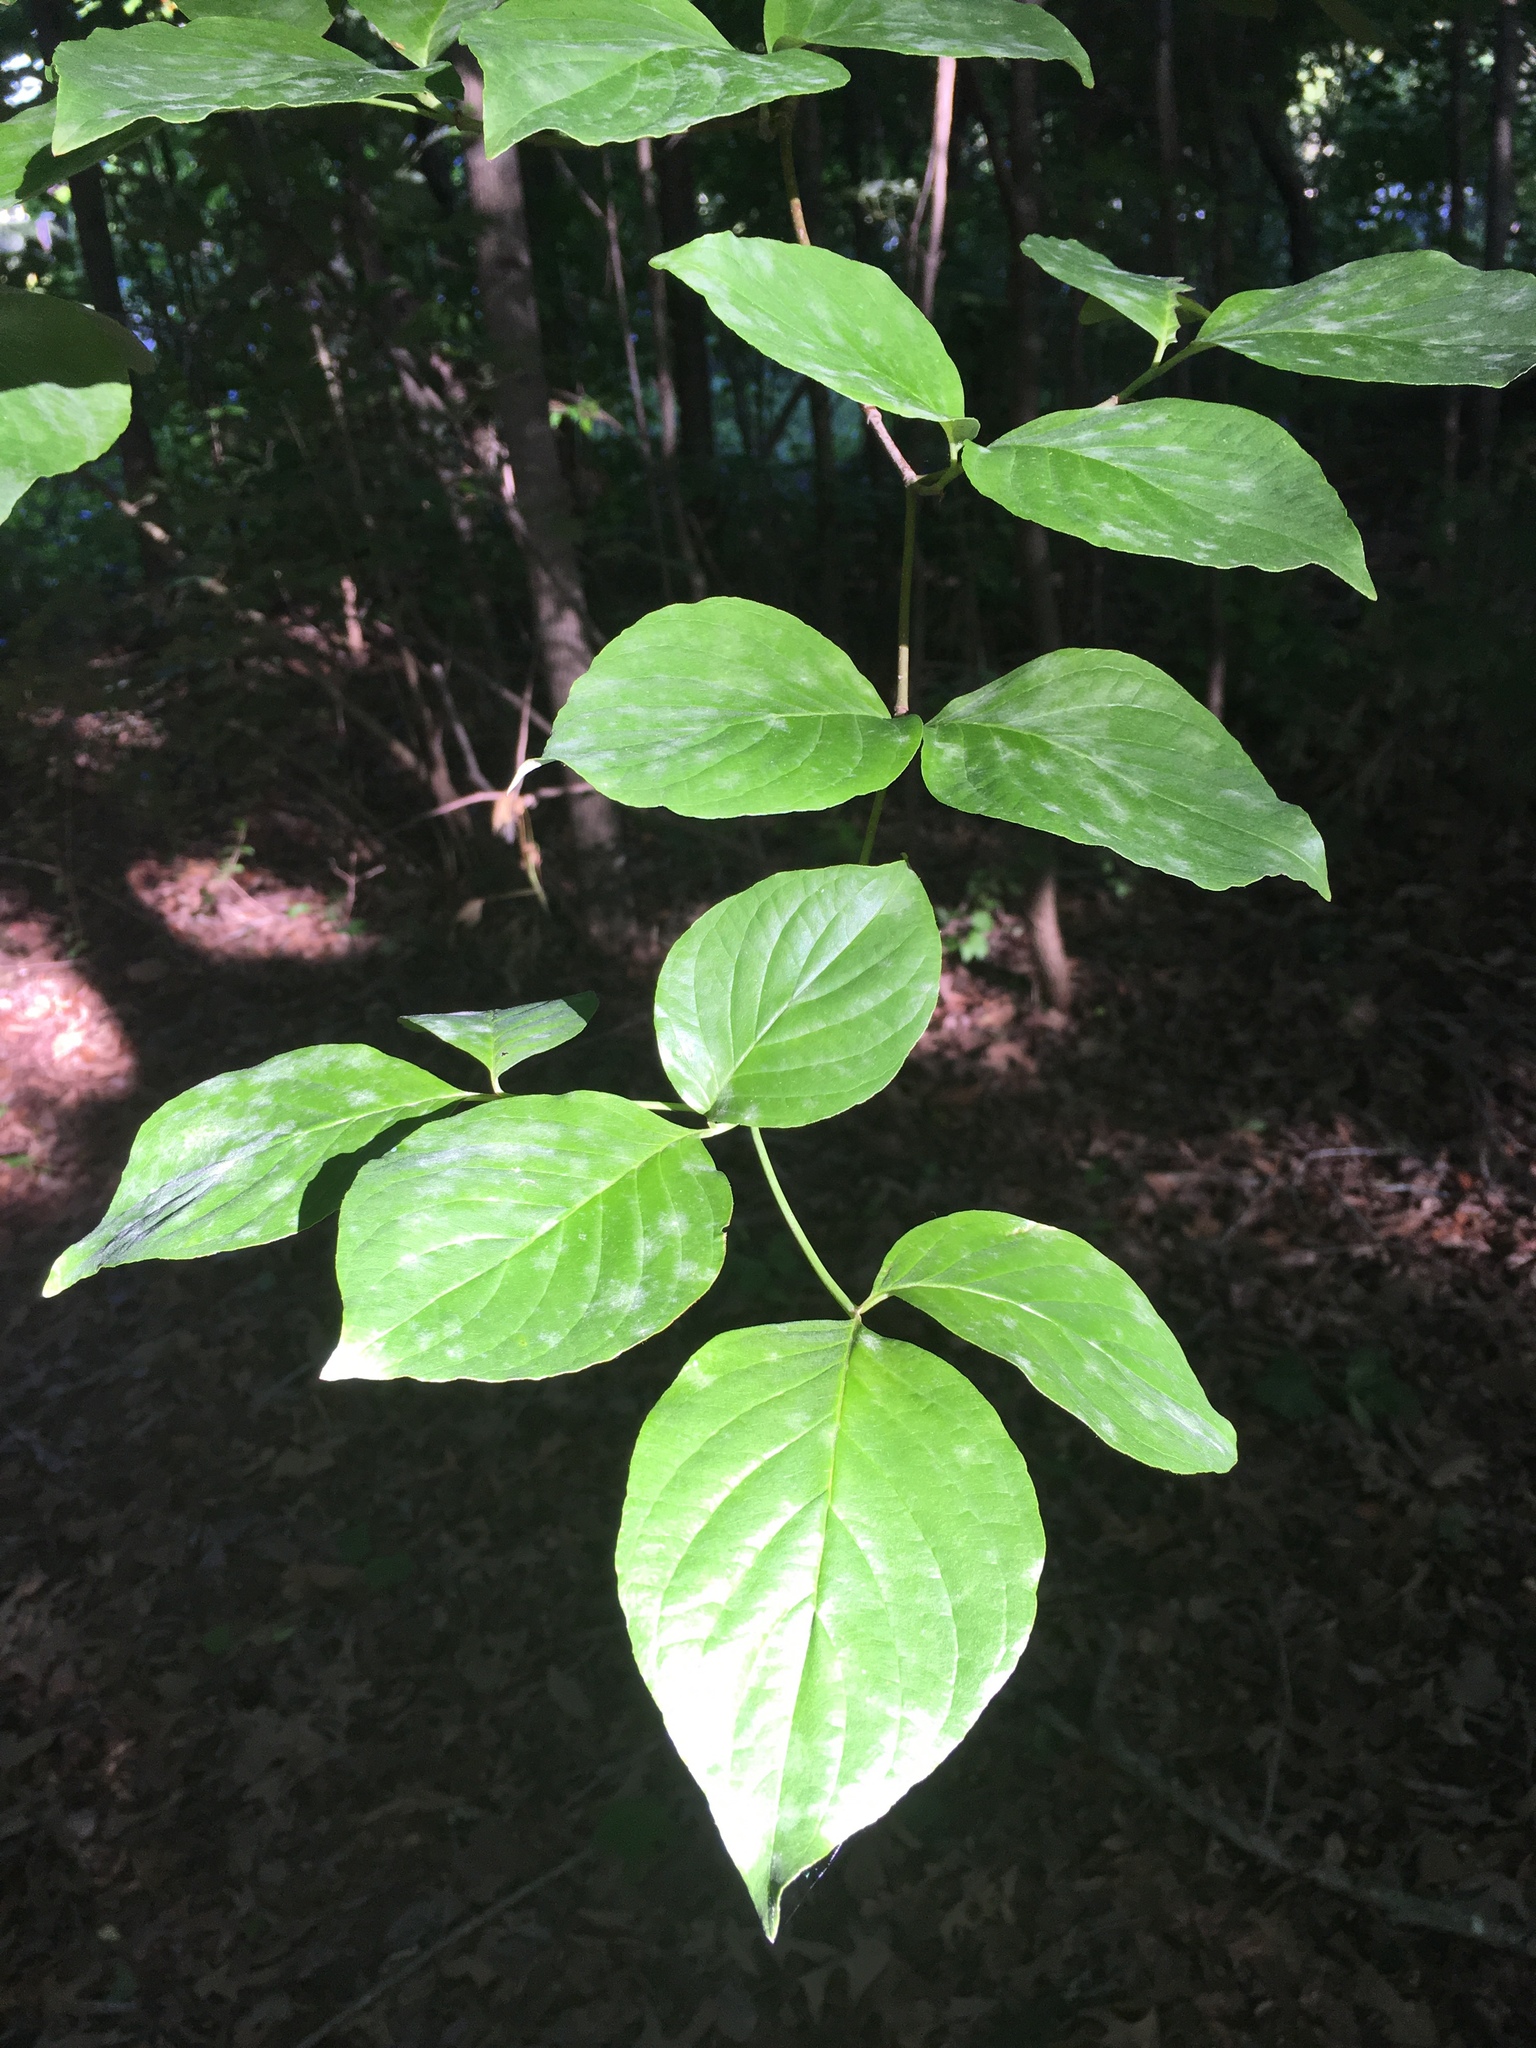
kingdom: Plantae
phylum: Tracheophyta
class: Magnoliopsida
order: Cornales
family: Cornaceae
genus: Cornus
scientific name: Cornus florida
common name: Flowering dogwood
